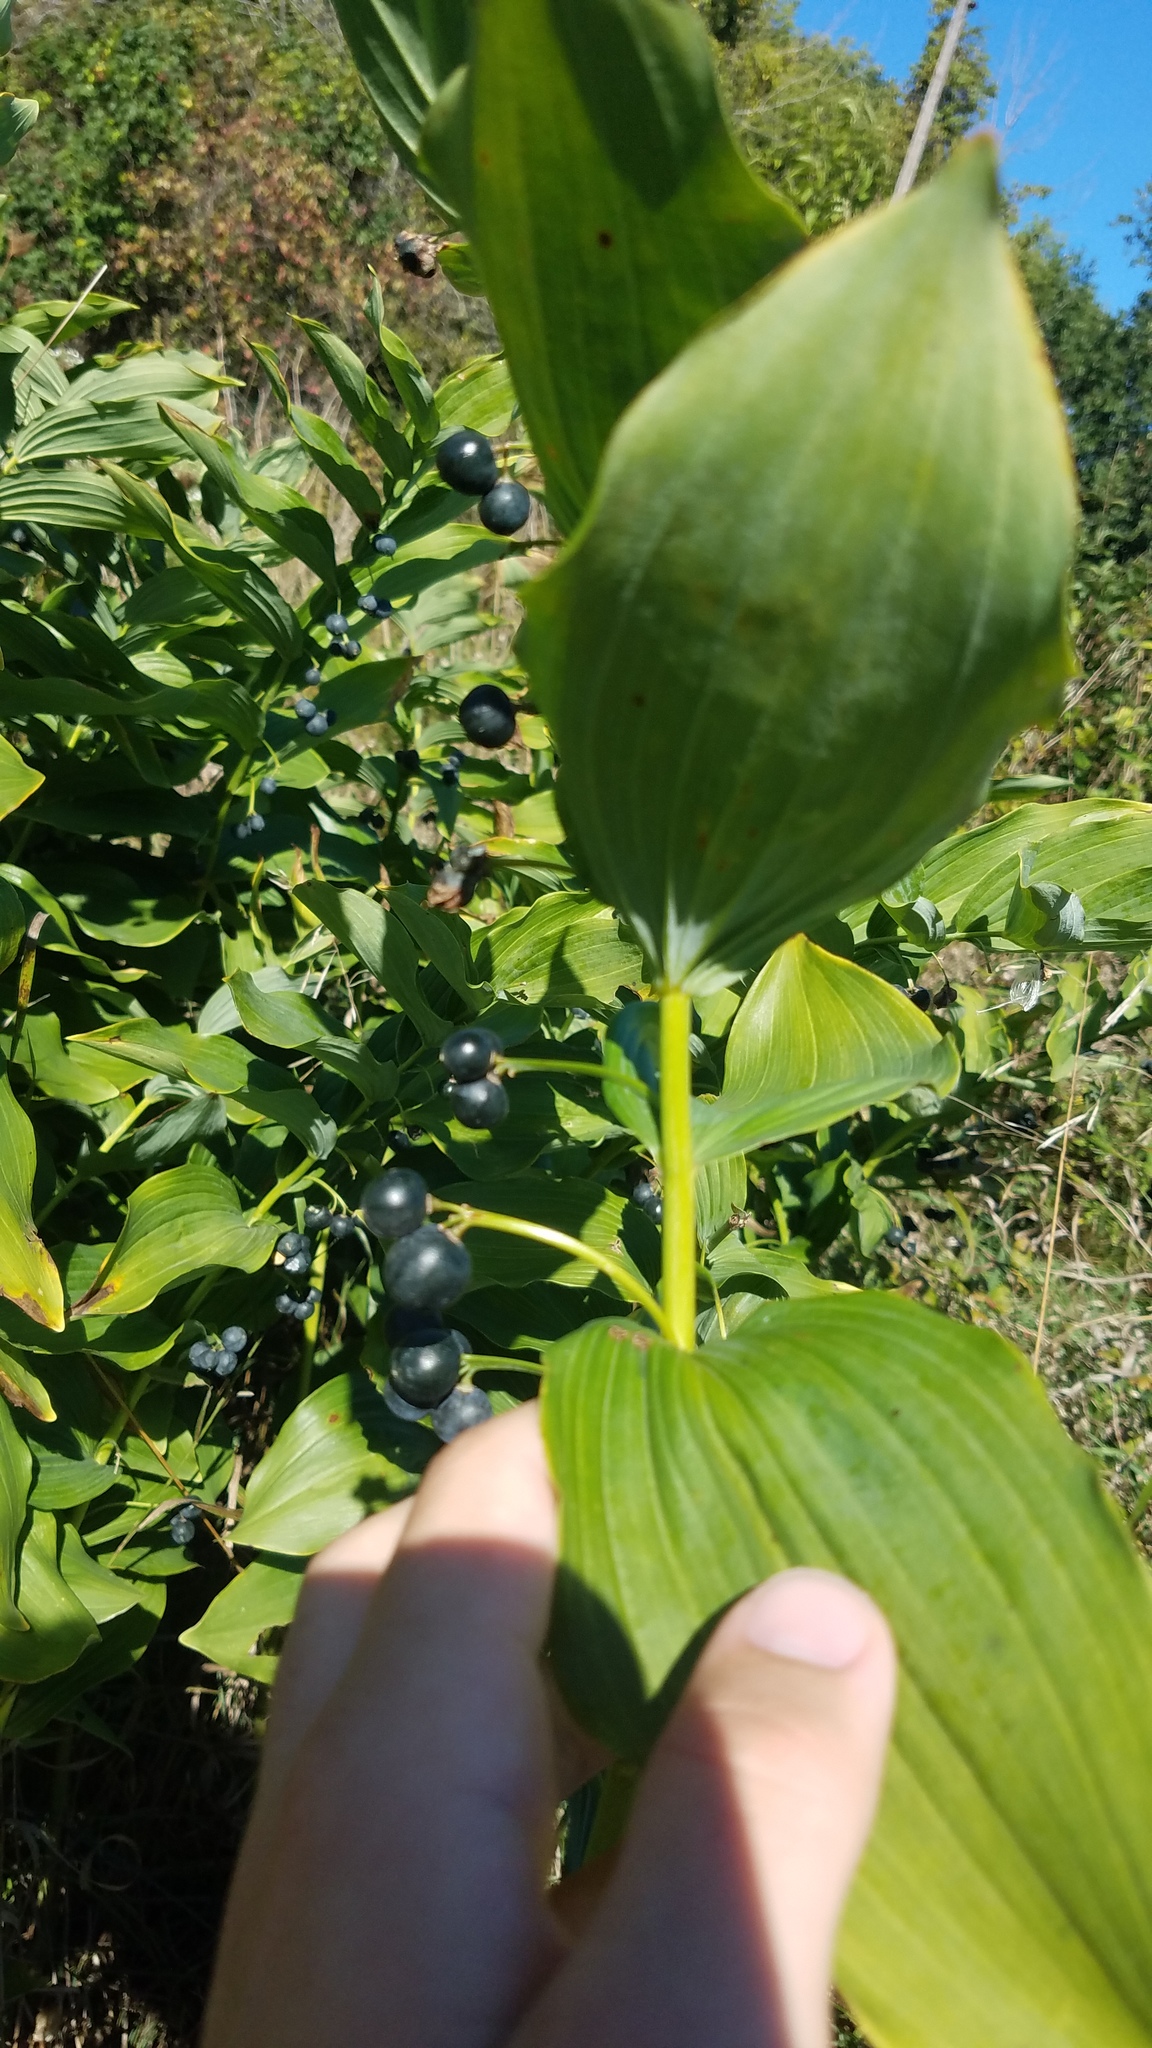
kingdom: Plantae
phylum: Tracheophyta
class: Liliopsida
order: Asparagales
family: Asparagaceae
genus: Polygonatum
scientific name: Polygonatum biflorum
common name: American solomon's-seal
